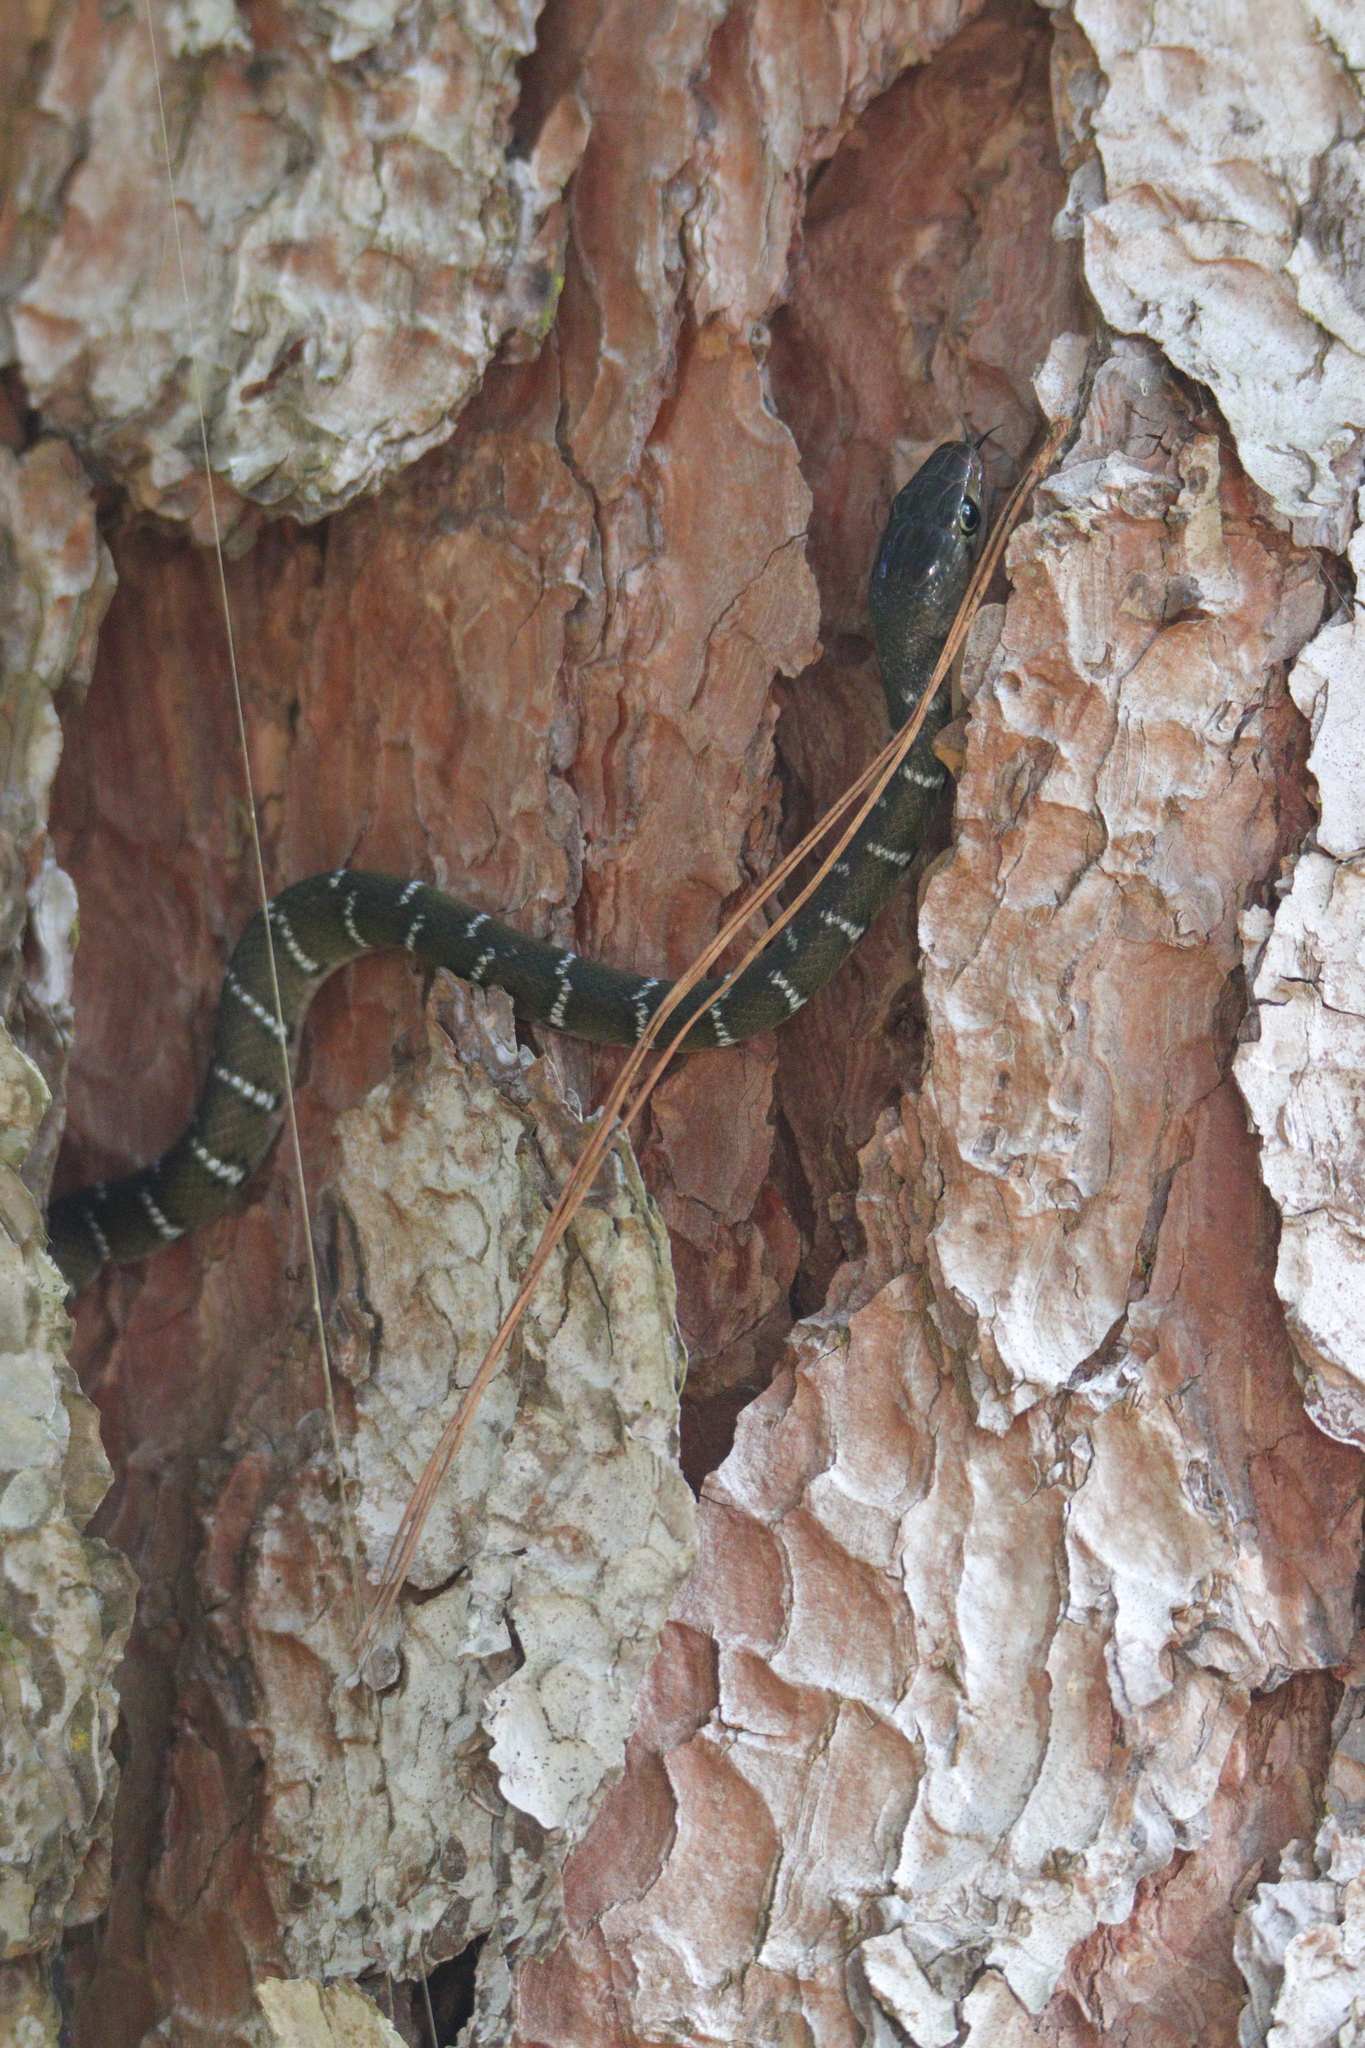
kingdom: Animalia
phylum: Chordata
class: Squamata
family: Colubridae
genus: Coelognathus
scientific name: Coelognathus erythrurus
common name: Reddish rat snake
